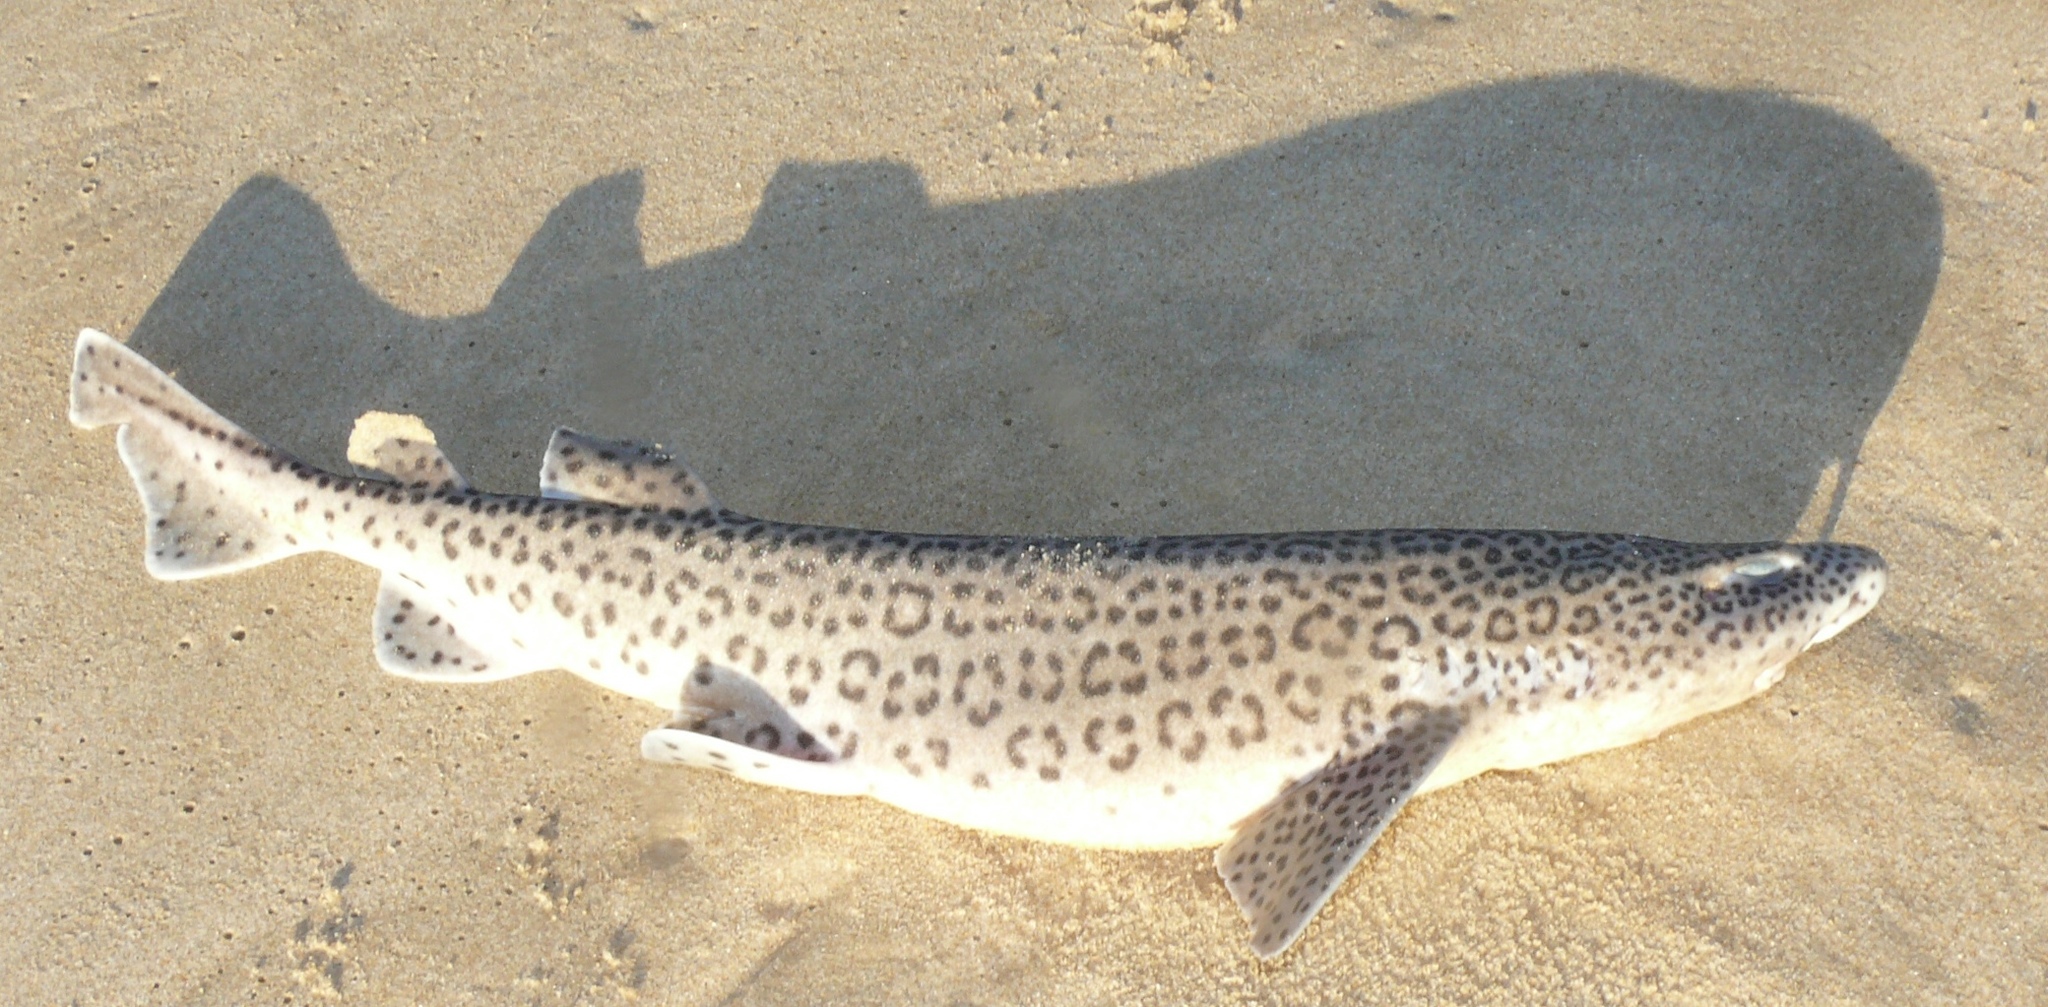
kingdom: Animalia
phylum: Chordata
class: Elasmobranchii
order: Carcharhiniformes
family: Scyliorhinidae
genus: Poroderma
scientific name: Poroderma pantherinum
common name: Leopard catshark
